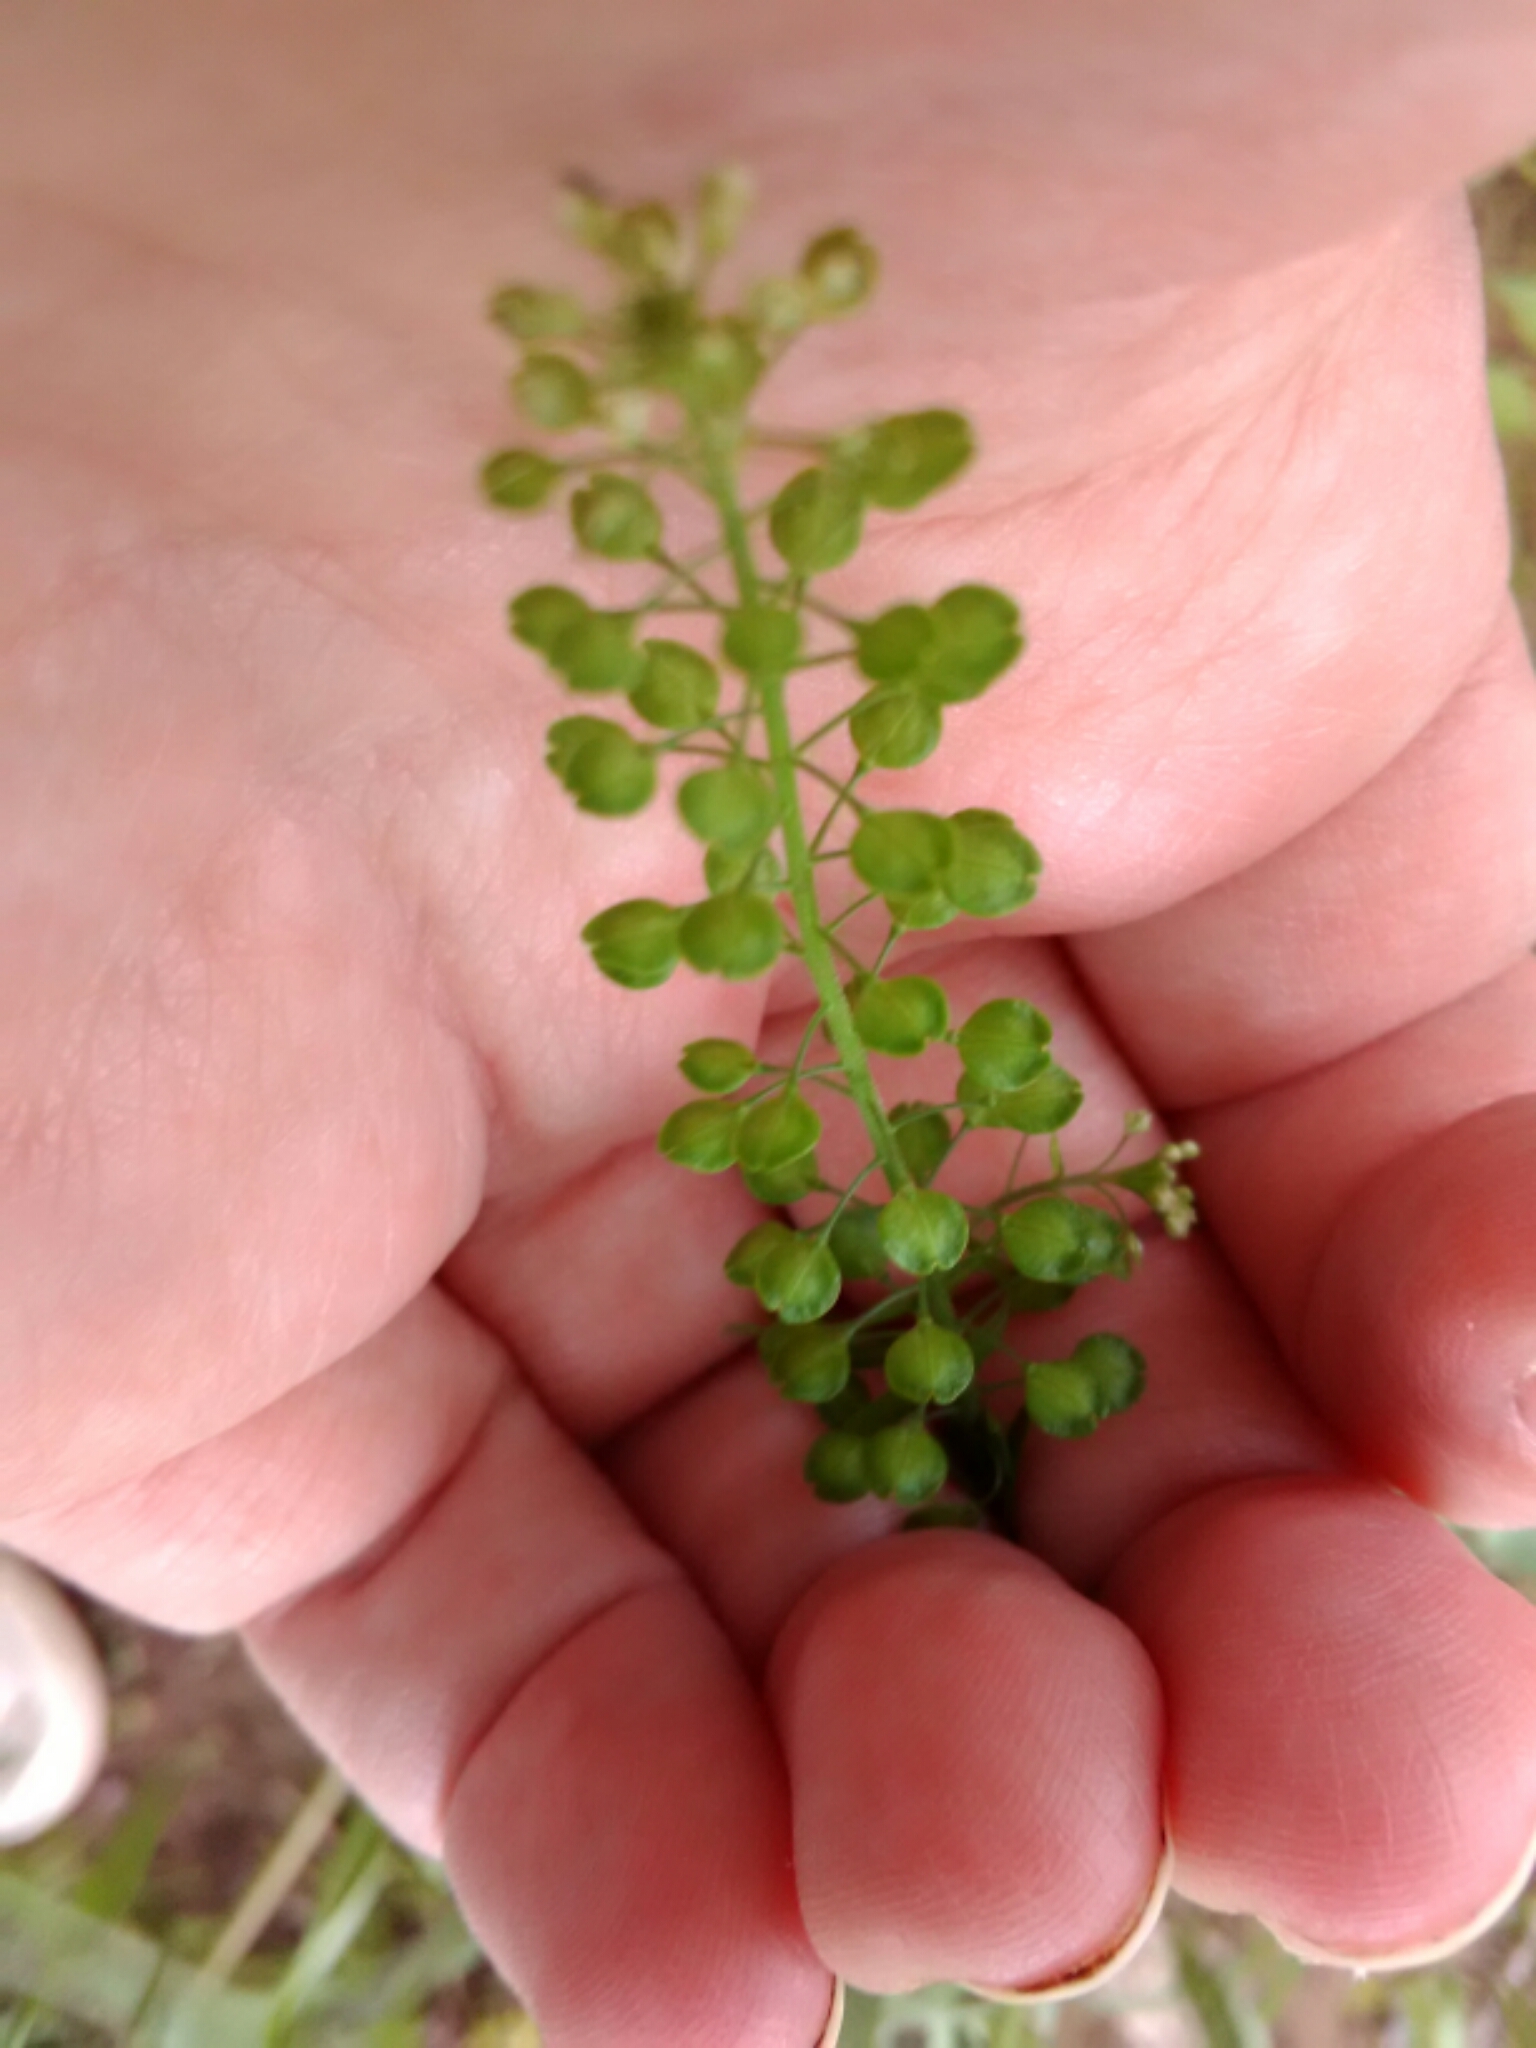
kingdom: Plantae
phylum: Tracheophyta
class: Magnoliopsida
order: Brassicales
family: Brassicaceae
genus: Lepidium
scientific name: Lepidium virginicum
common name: Least pepperwort
